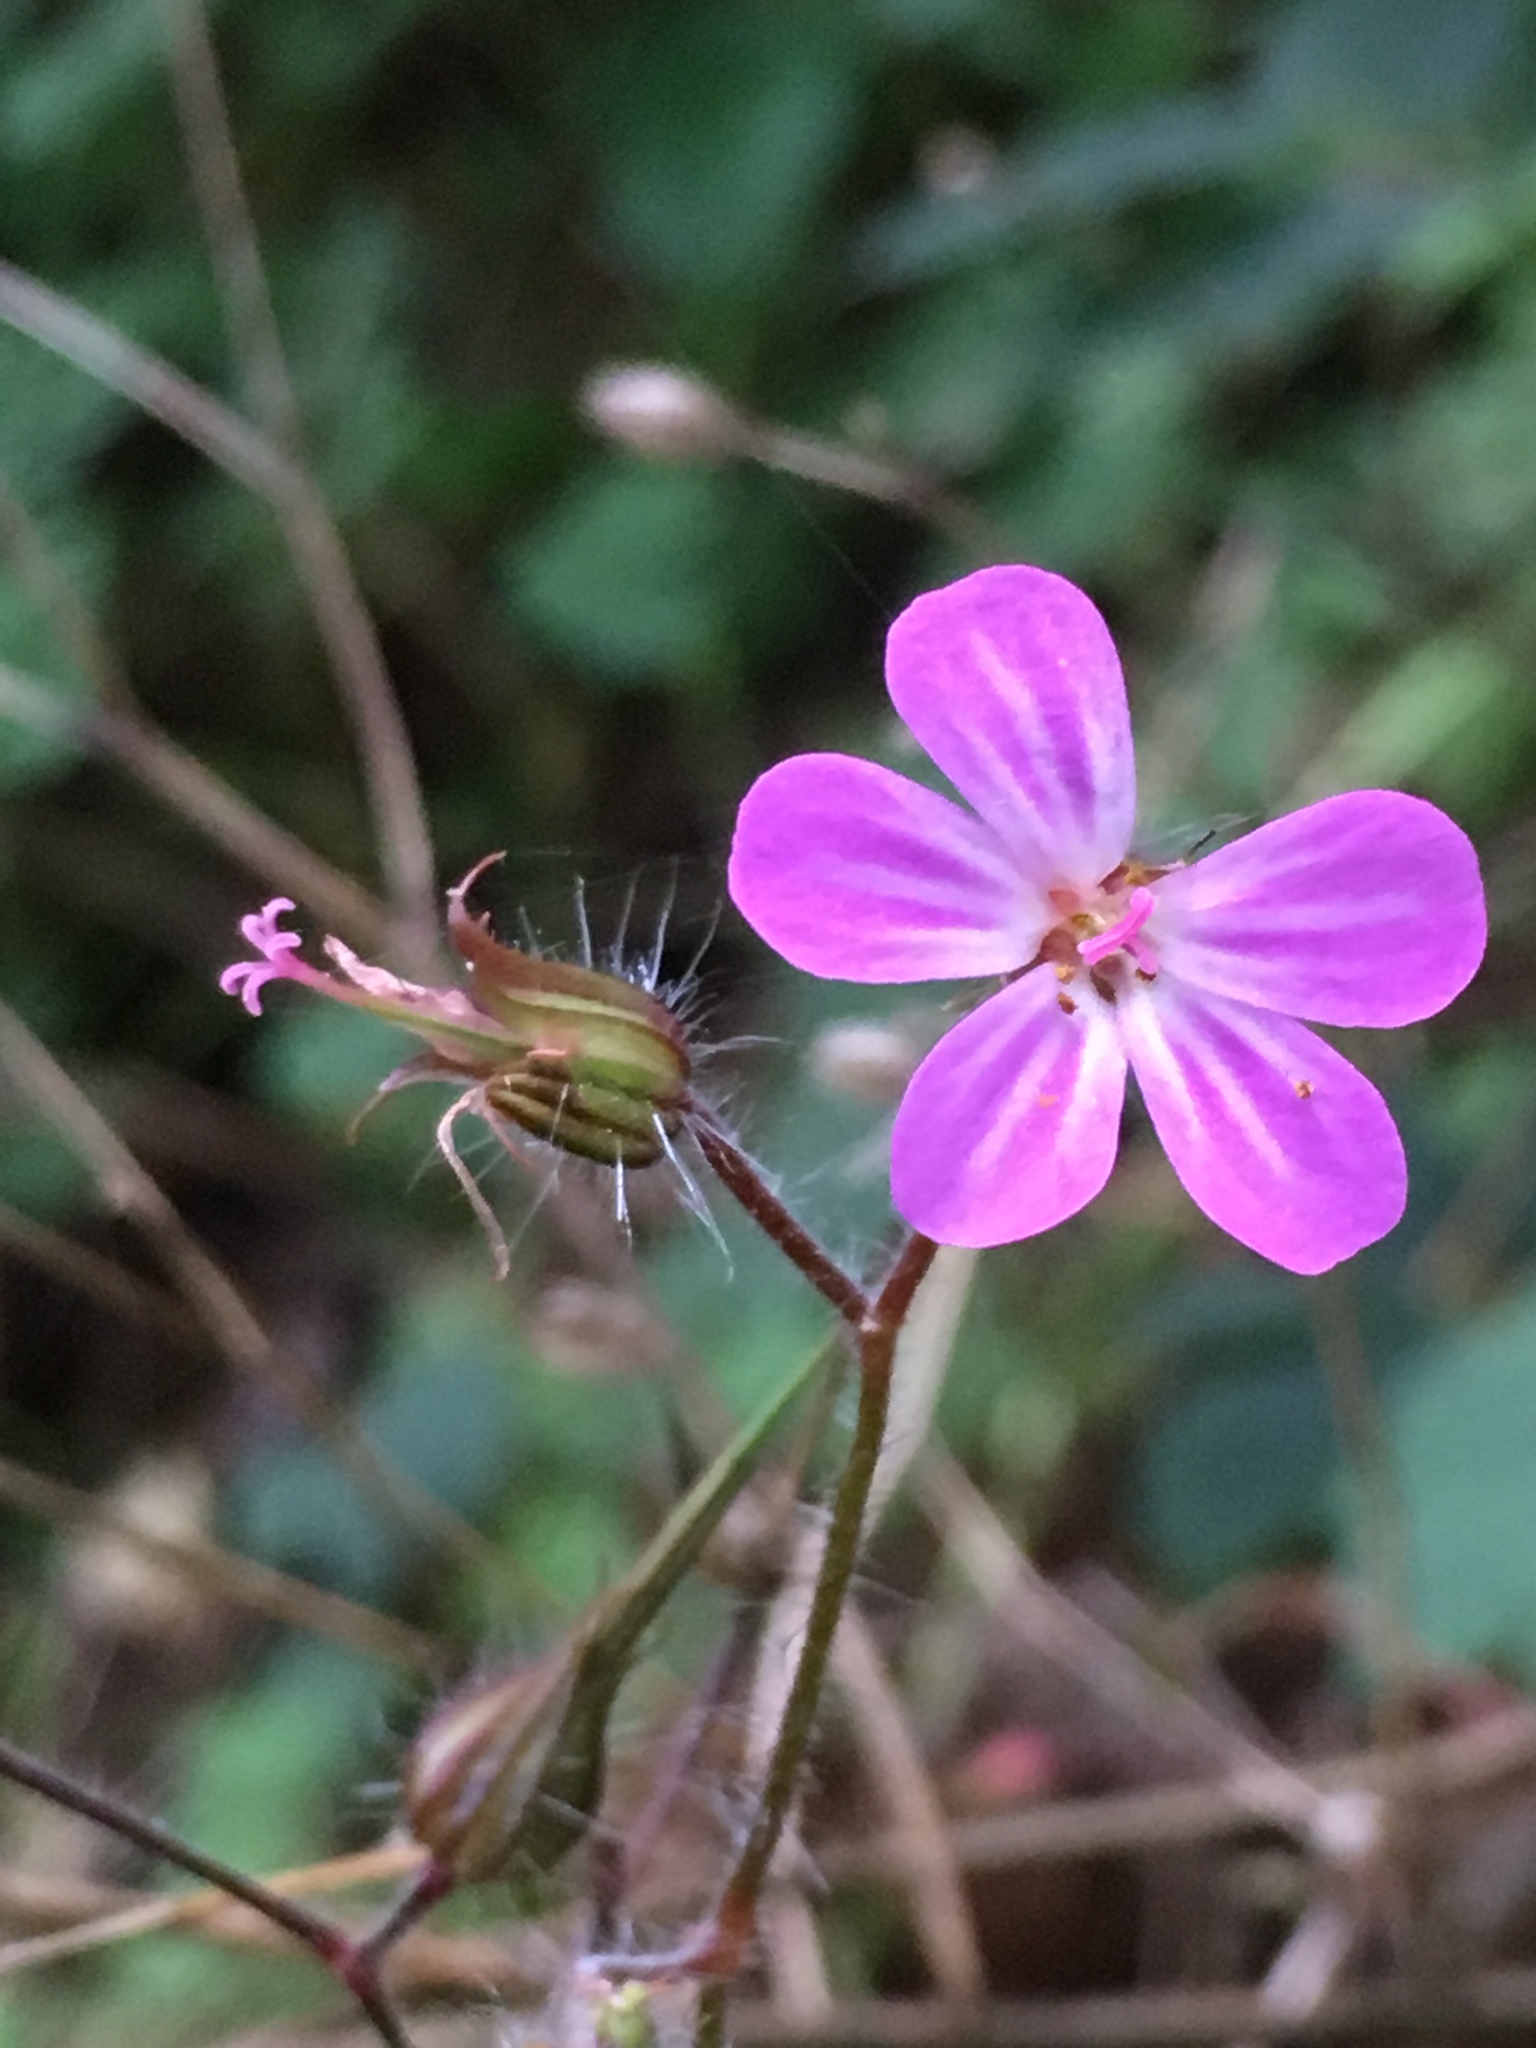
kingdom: Plantae
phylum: Tracheophyta
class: Magnoliopsida
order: Geraniales
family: Geraniaceae
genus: Geranium
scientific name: Geranium robertianum
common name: Herb-robert
